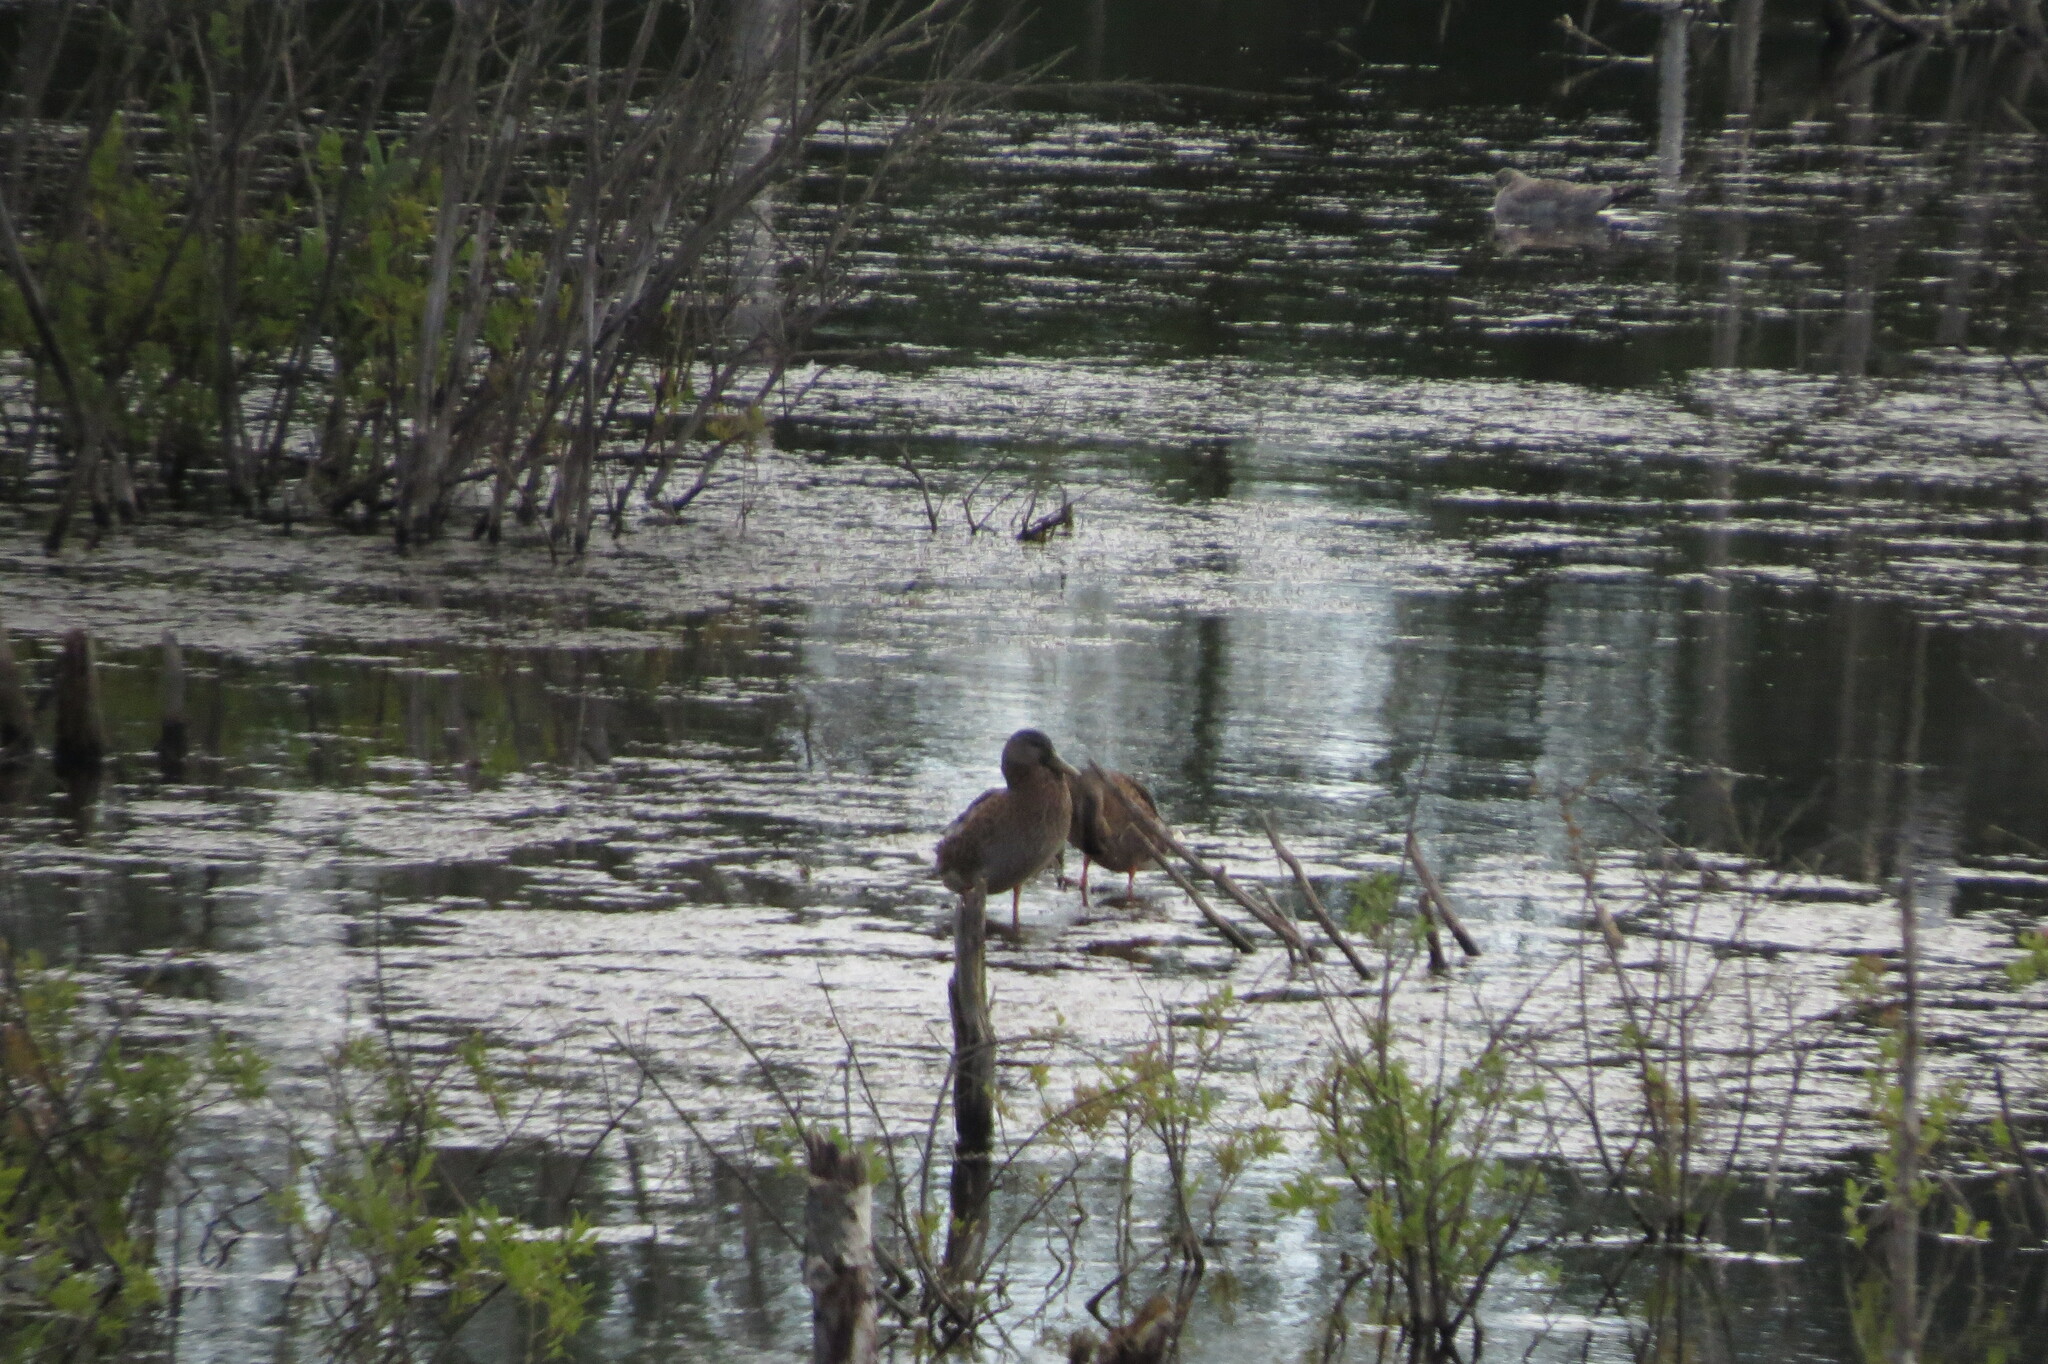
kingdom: Animalia
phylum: Chordata
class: Aves
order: Anseriformes
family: Anatidae
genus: Anas
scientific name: Anas platyrhynchos
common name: Mallard
